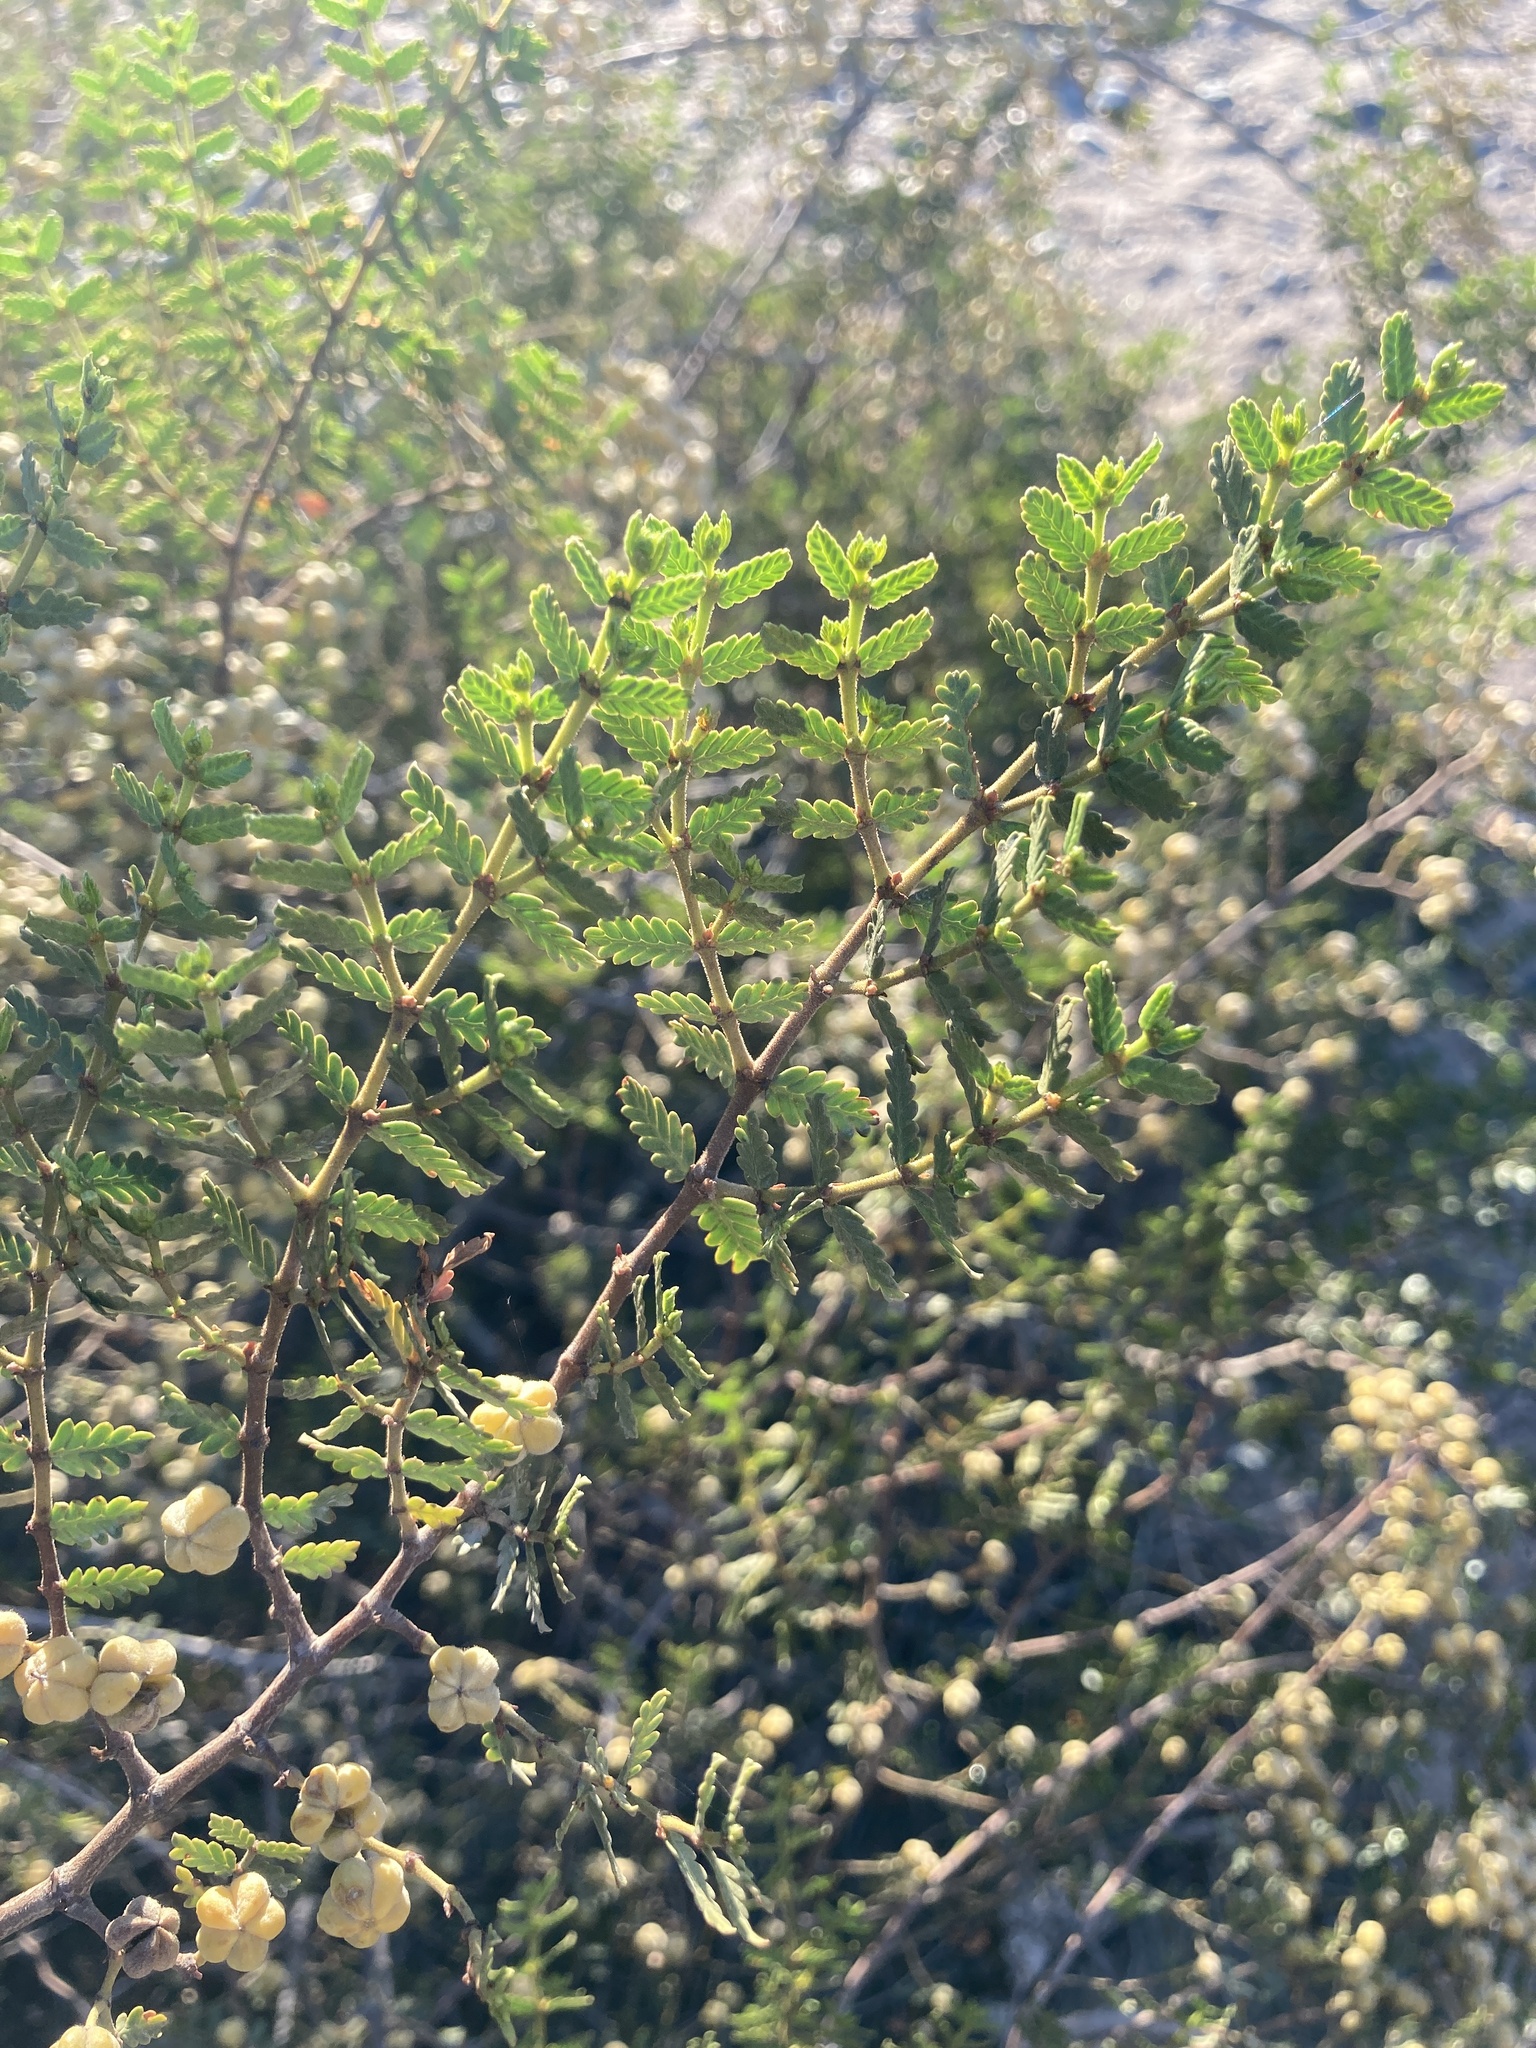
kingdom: Plantae
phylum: Tracheophyta
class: Magnoliopsida
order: Zygophyllales
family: Zygophyllaceae
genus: Larrea
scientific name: Larrea nitida
